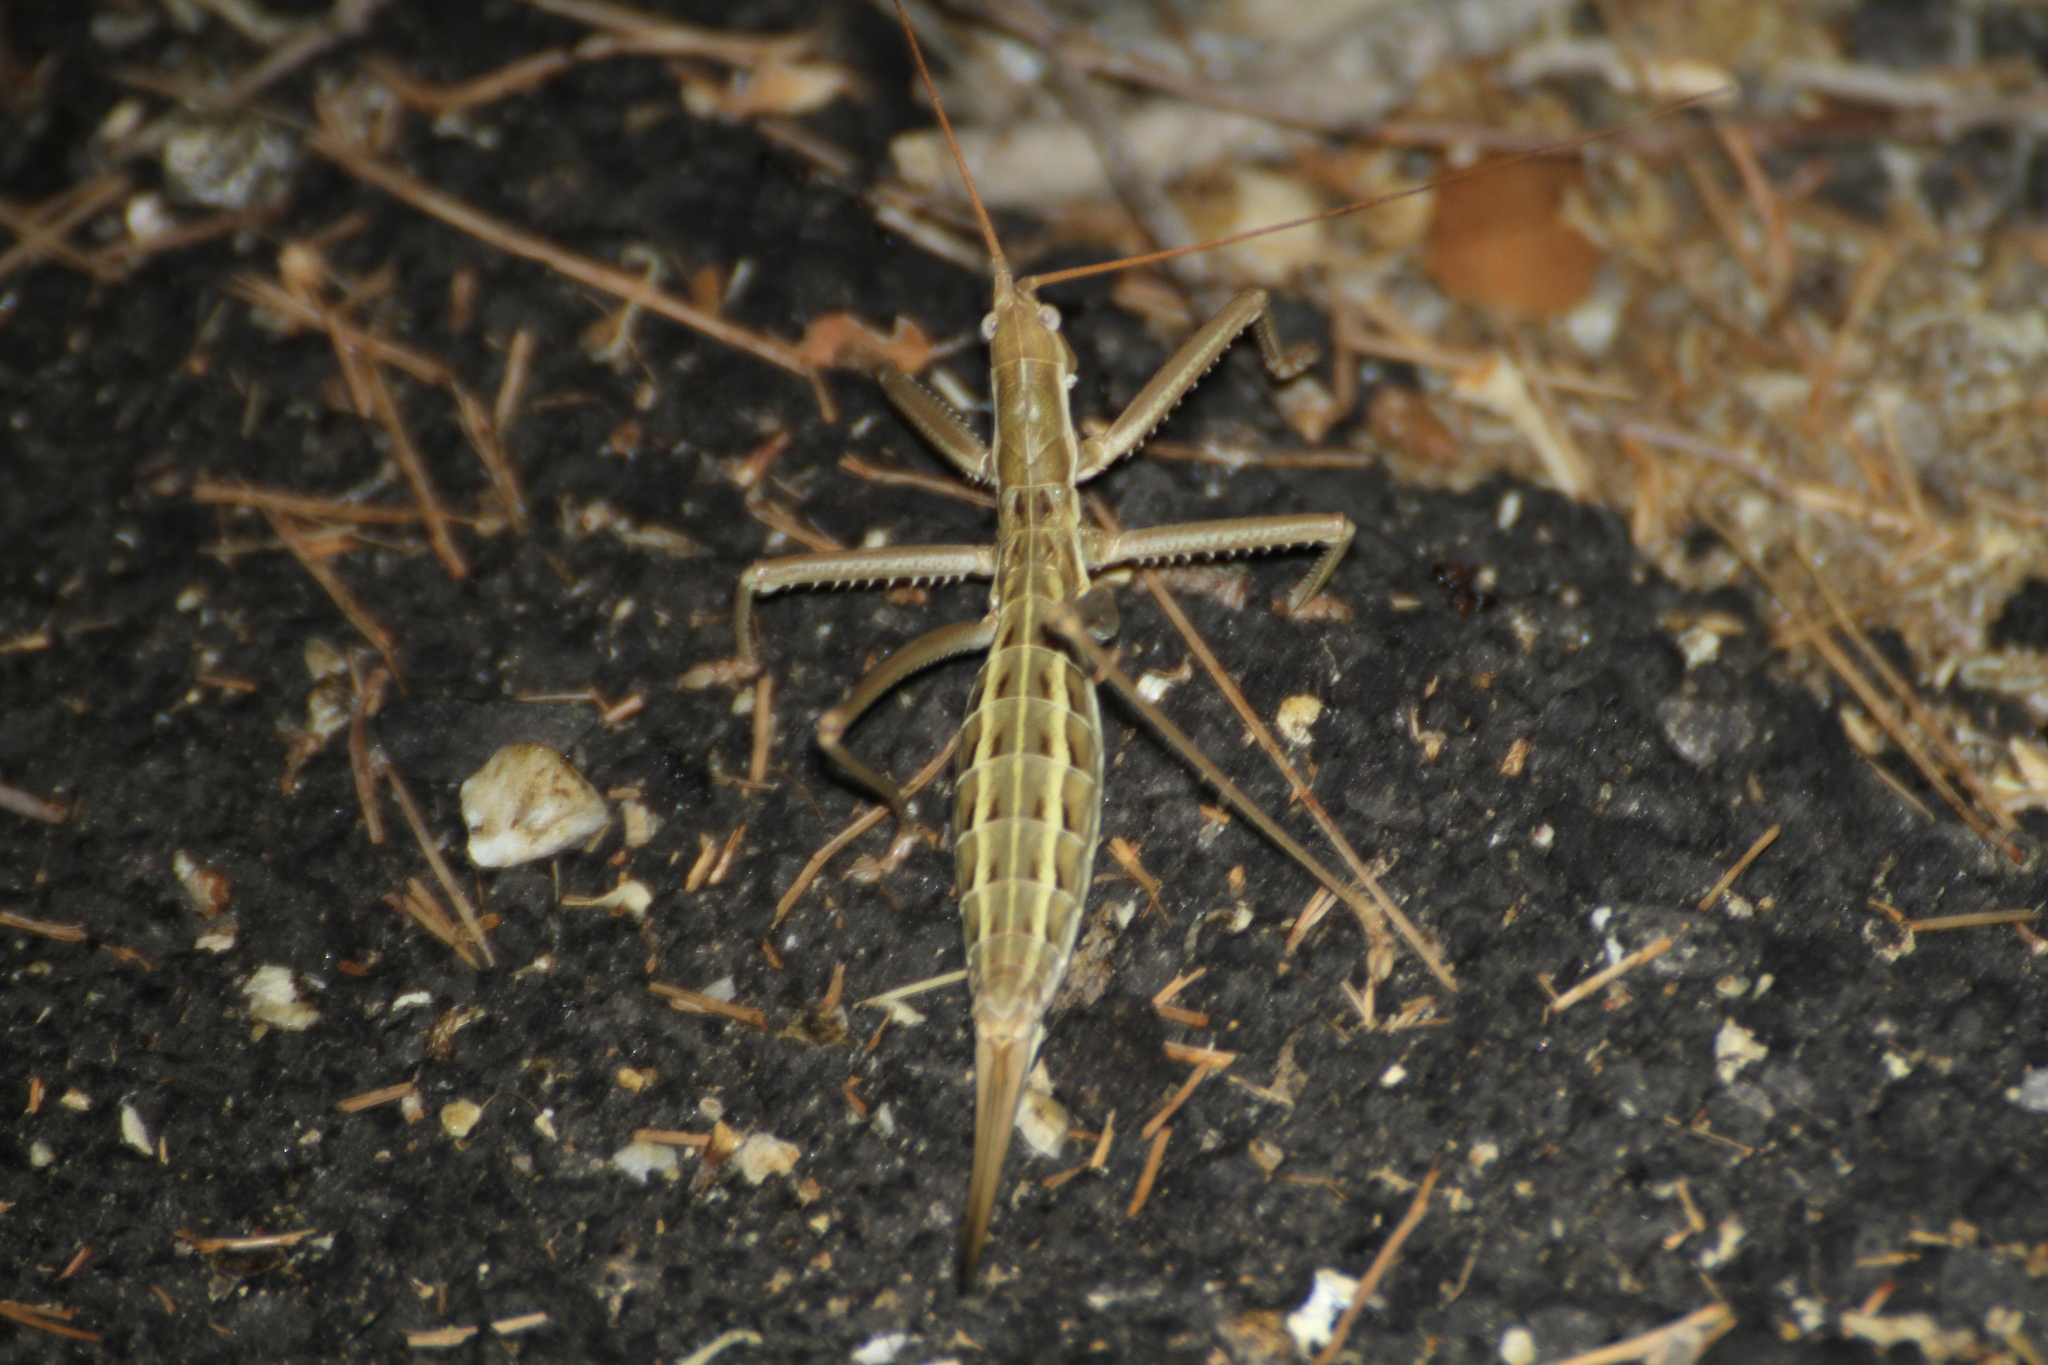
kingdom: Animalia
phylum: Arthropoda
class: Insecta
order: Orthoptera
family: Tettigoniidae
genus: Saga
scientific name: Saga pedo
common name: Common predatory bush-cricket
